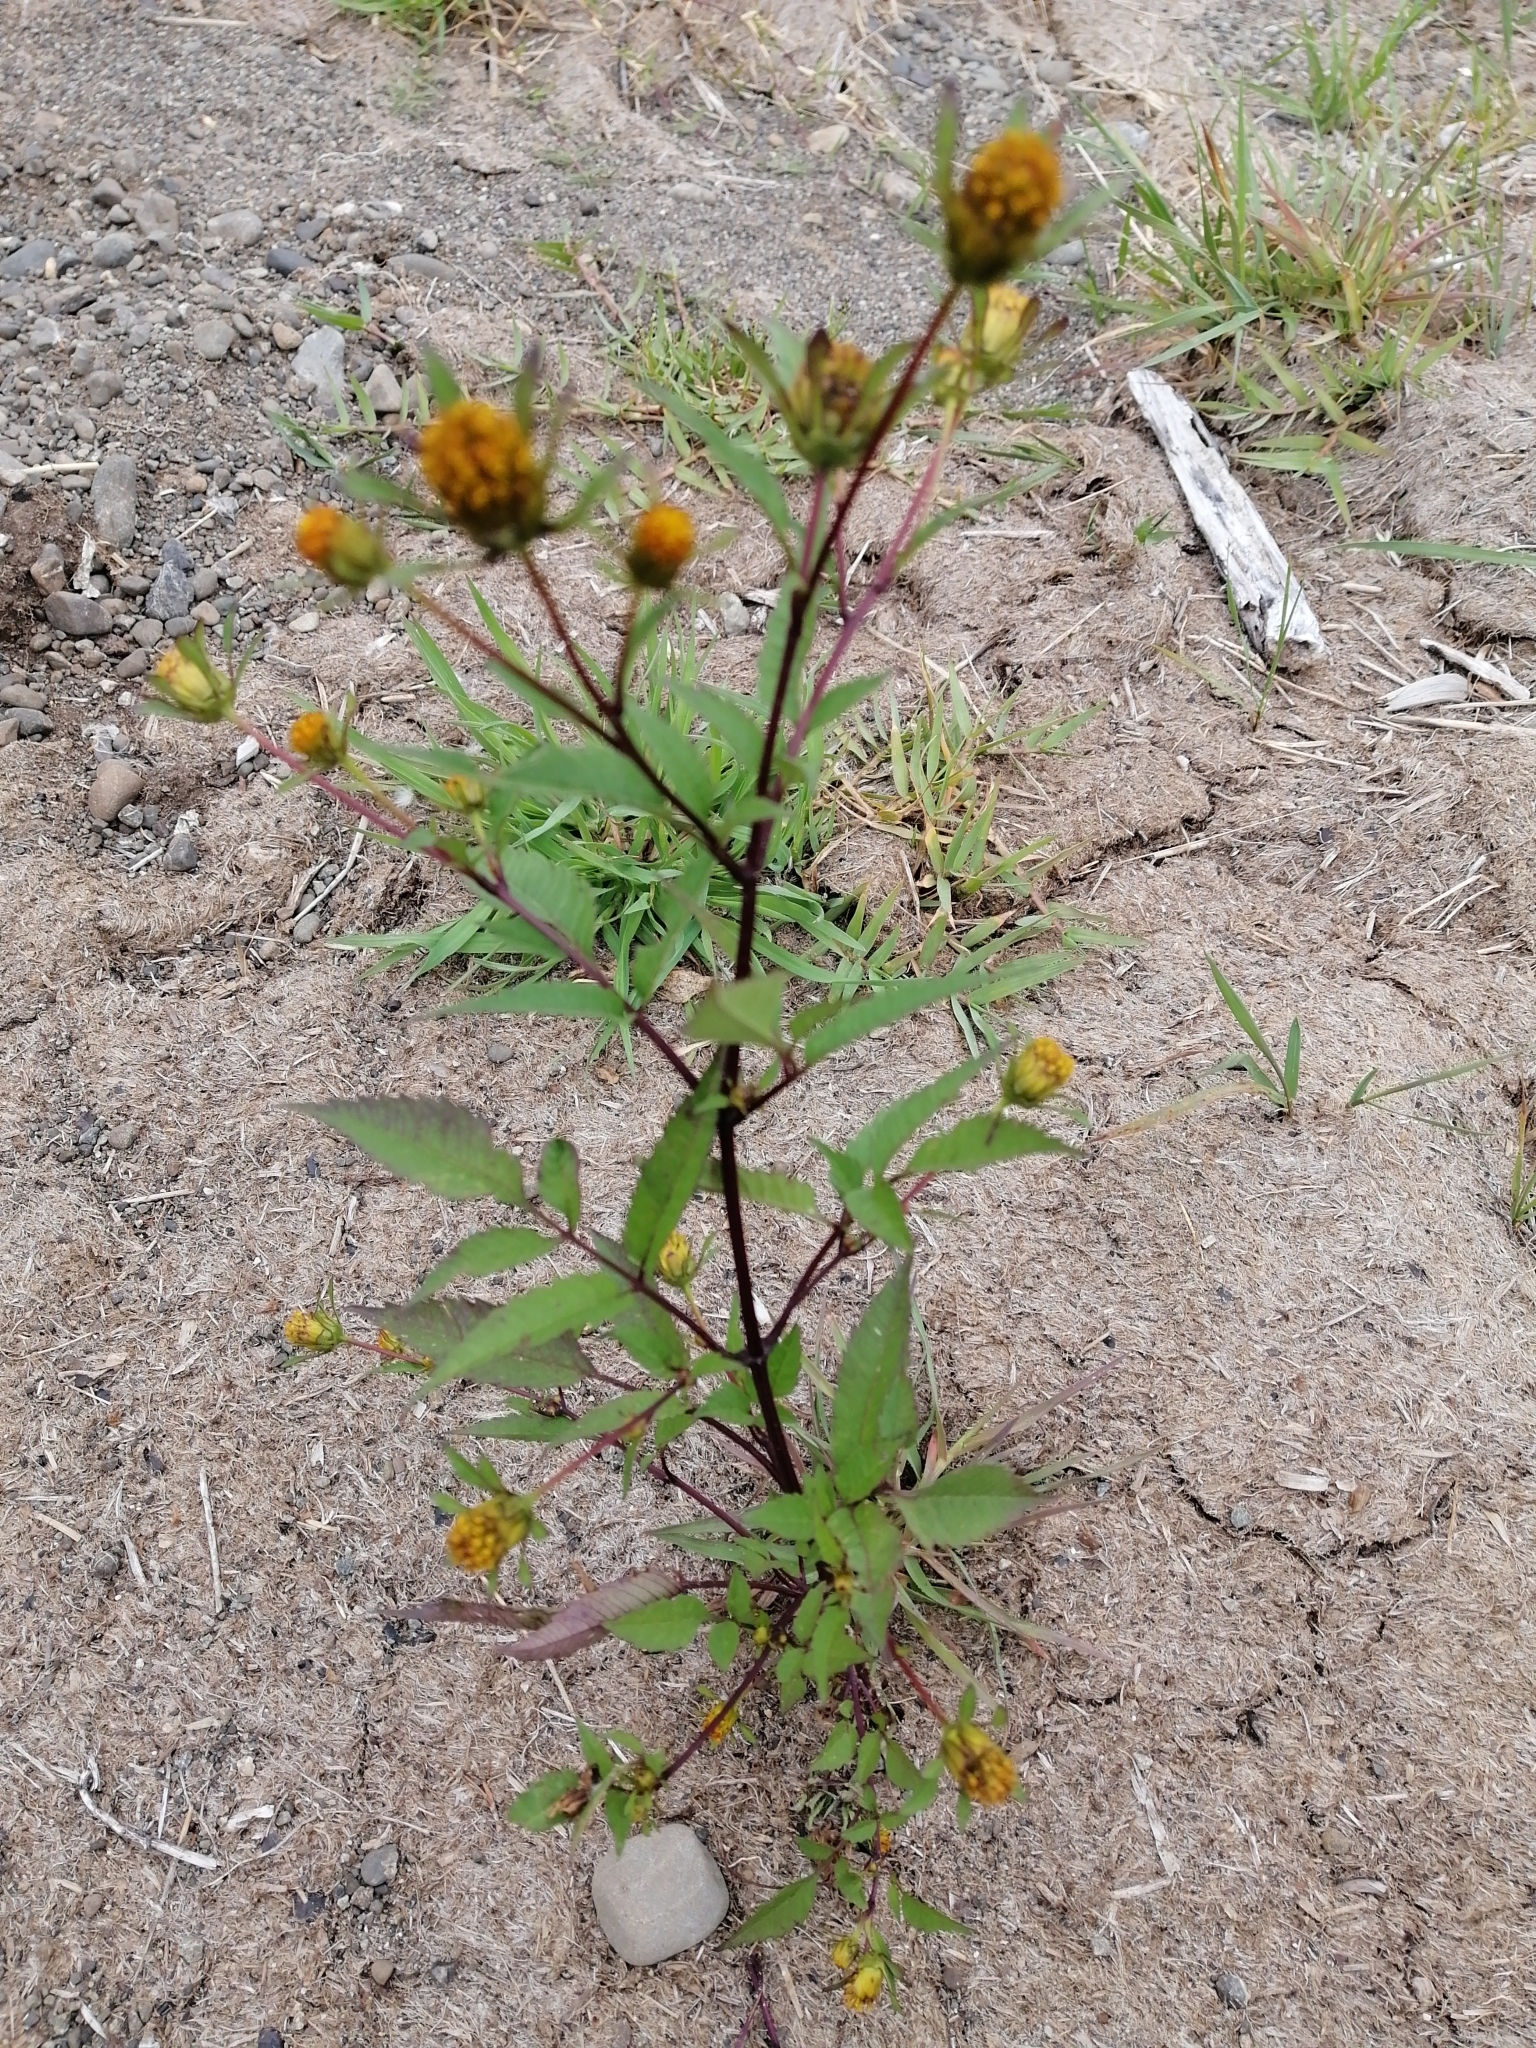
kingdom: Plantae
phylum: Tracheophyta
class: Magnoliopsida
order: Asterales
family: Asteraceae
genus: Bidens
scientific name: Bidens frondosa
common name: Beggarticks
